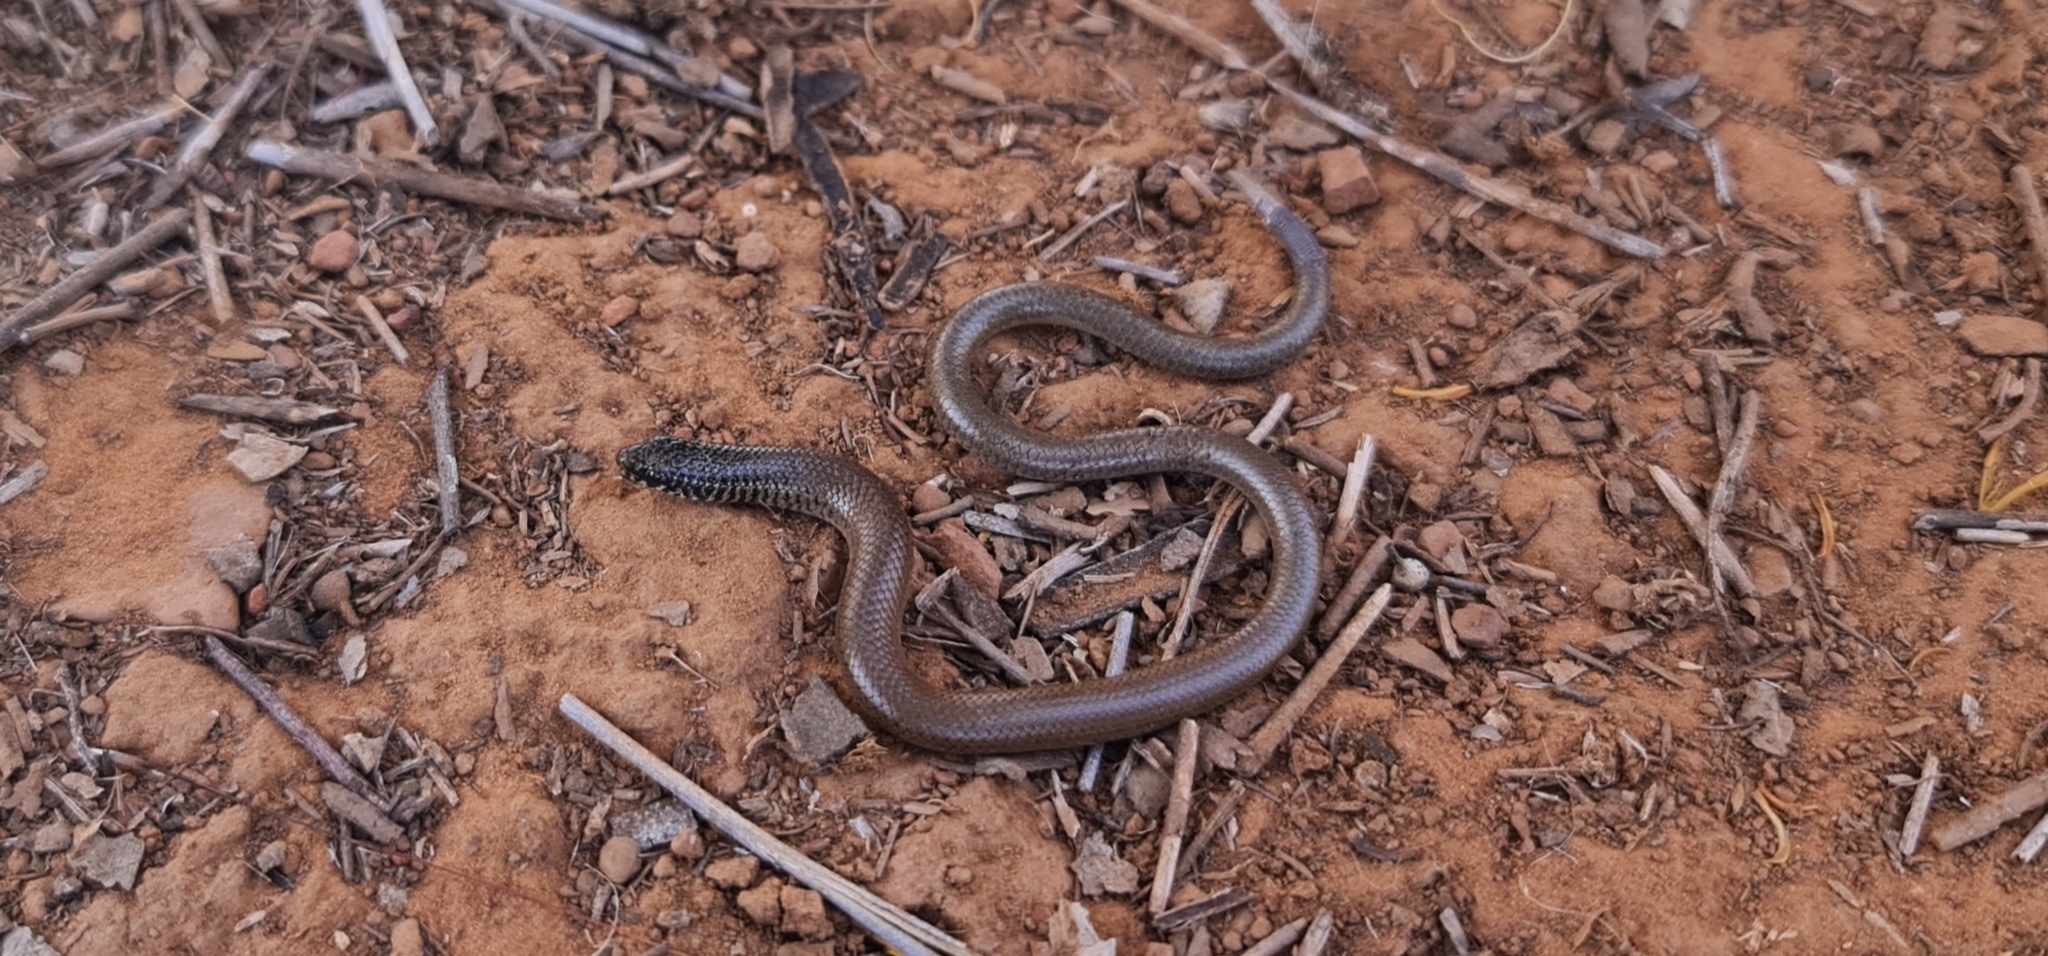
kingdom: Animalia
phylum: Chordata
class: Squamata
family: Pygopodidae
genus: Delma
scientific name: Delma australis
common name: Marble-faced delma
